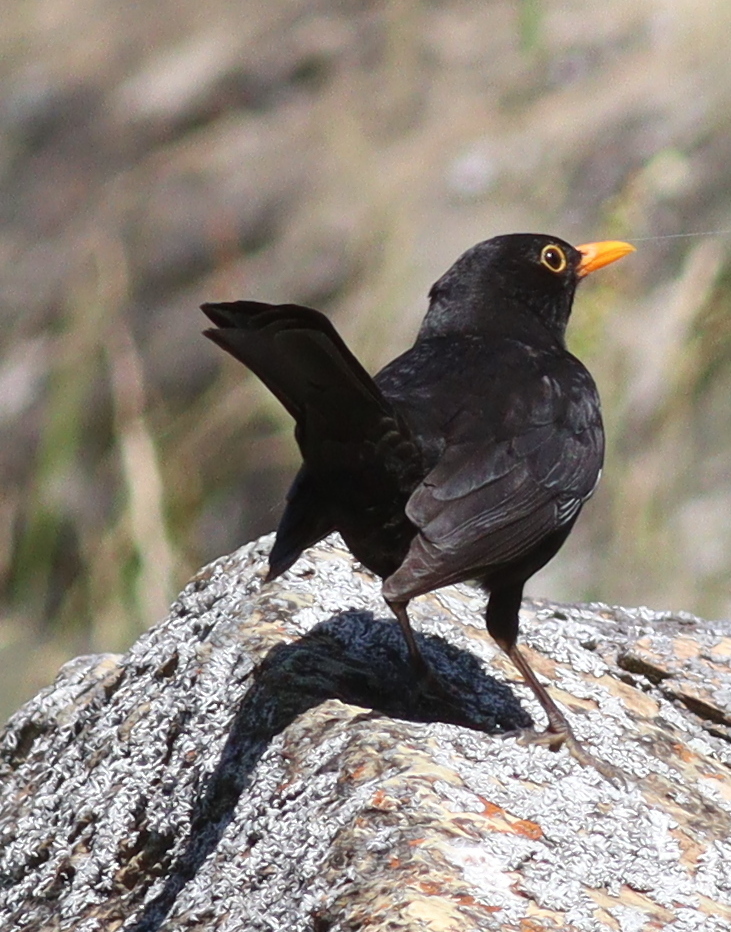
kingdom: Animalia
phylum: Chordata
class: Aves
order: Passeriformes
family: Turdidae
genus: Turdus
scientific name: Turdus merula
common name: Common blackbird
